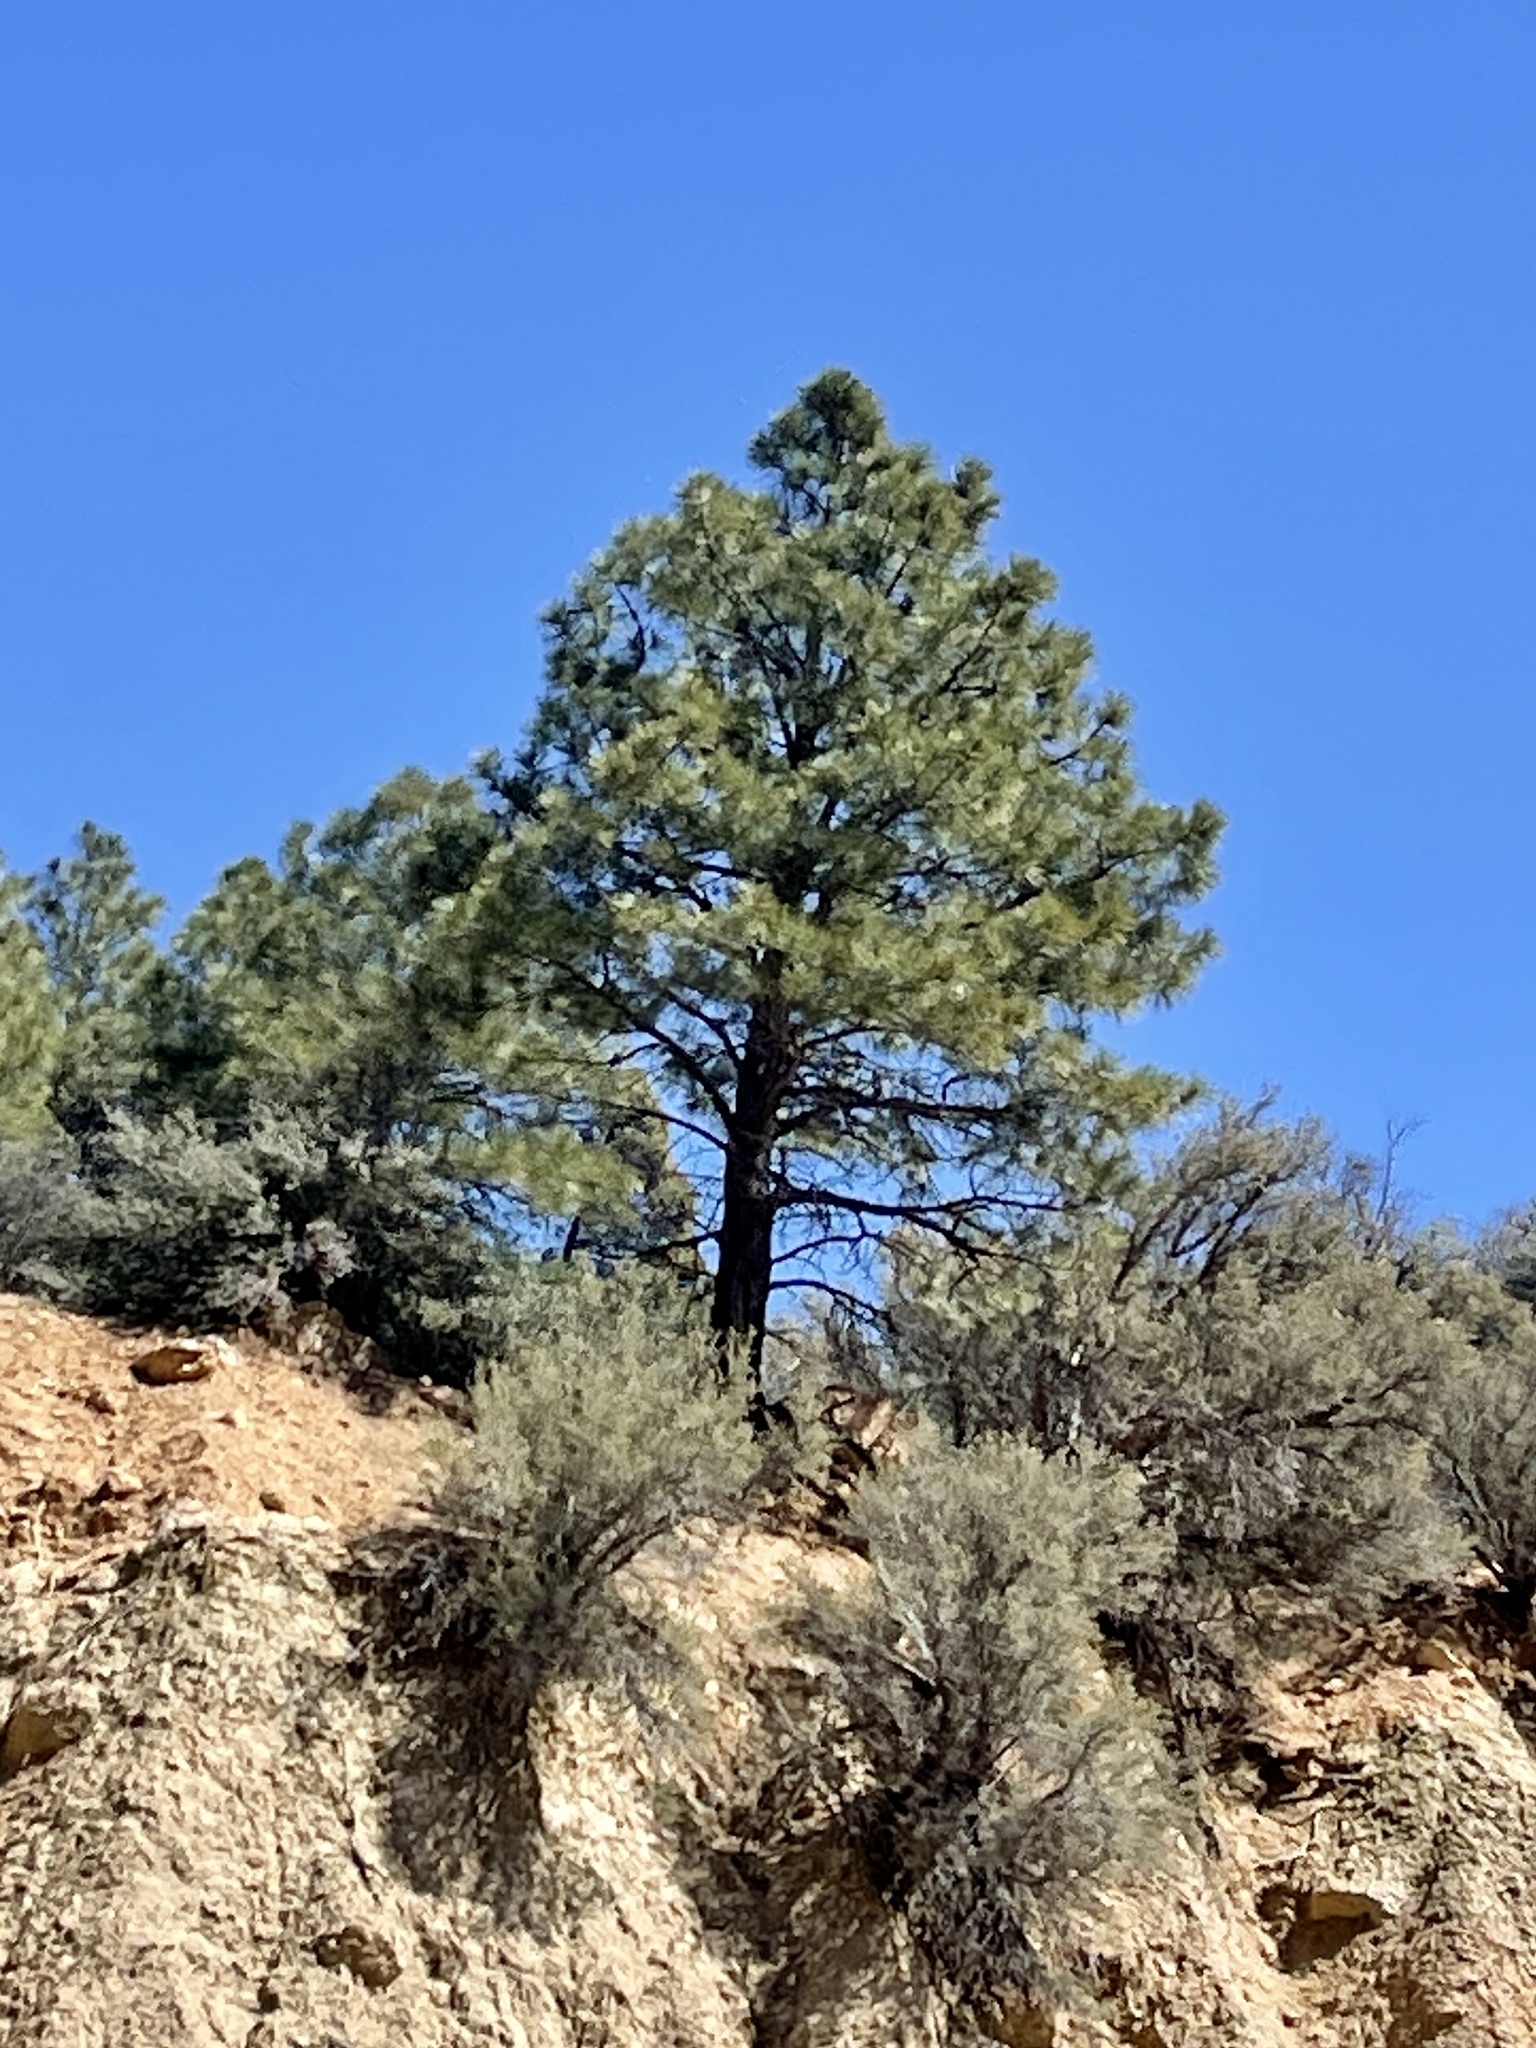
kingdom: Plantae
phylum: Tracheophyta
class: Pinopsida
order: Pinales
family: Pinaceae
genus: Pinus
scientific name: Pinus ponderosa
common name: Western yellow-pine
